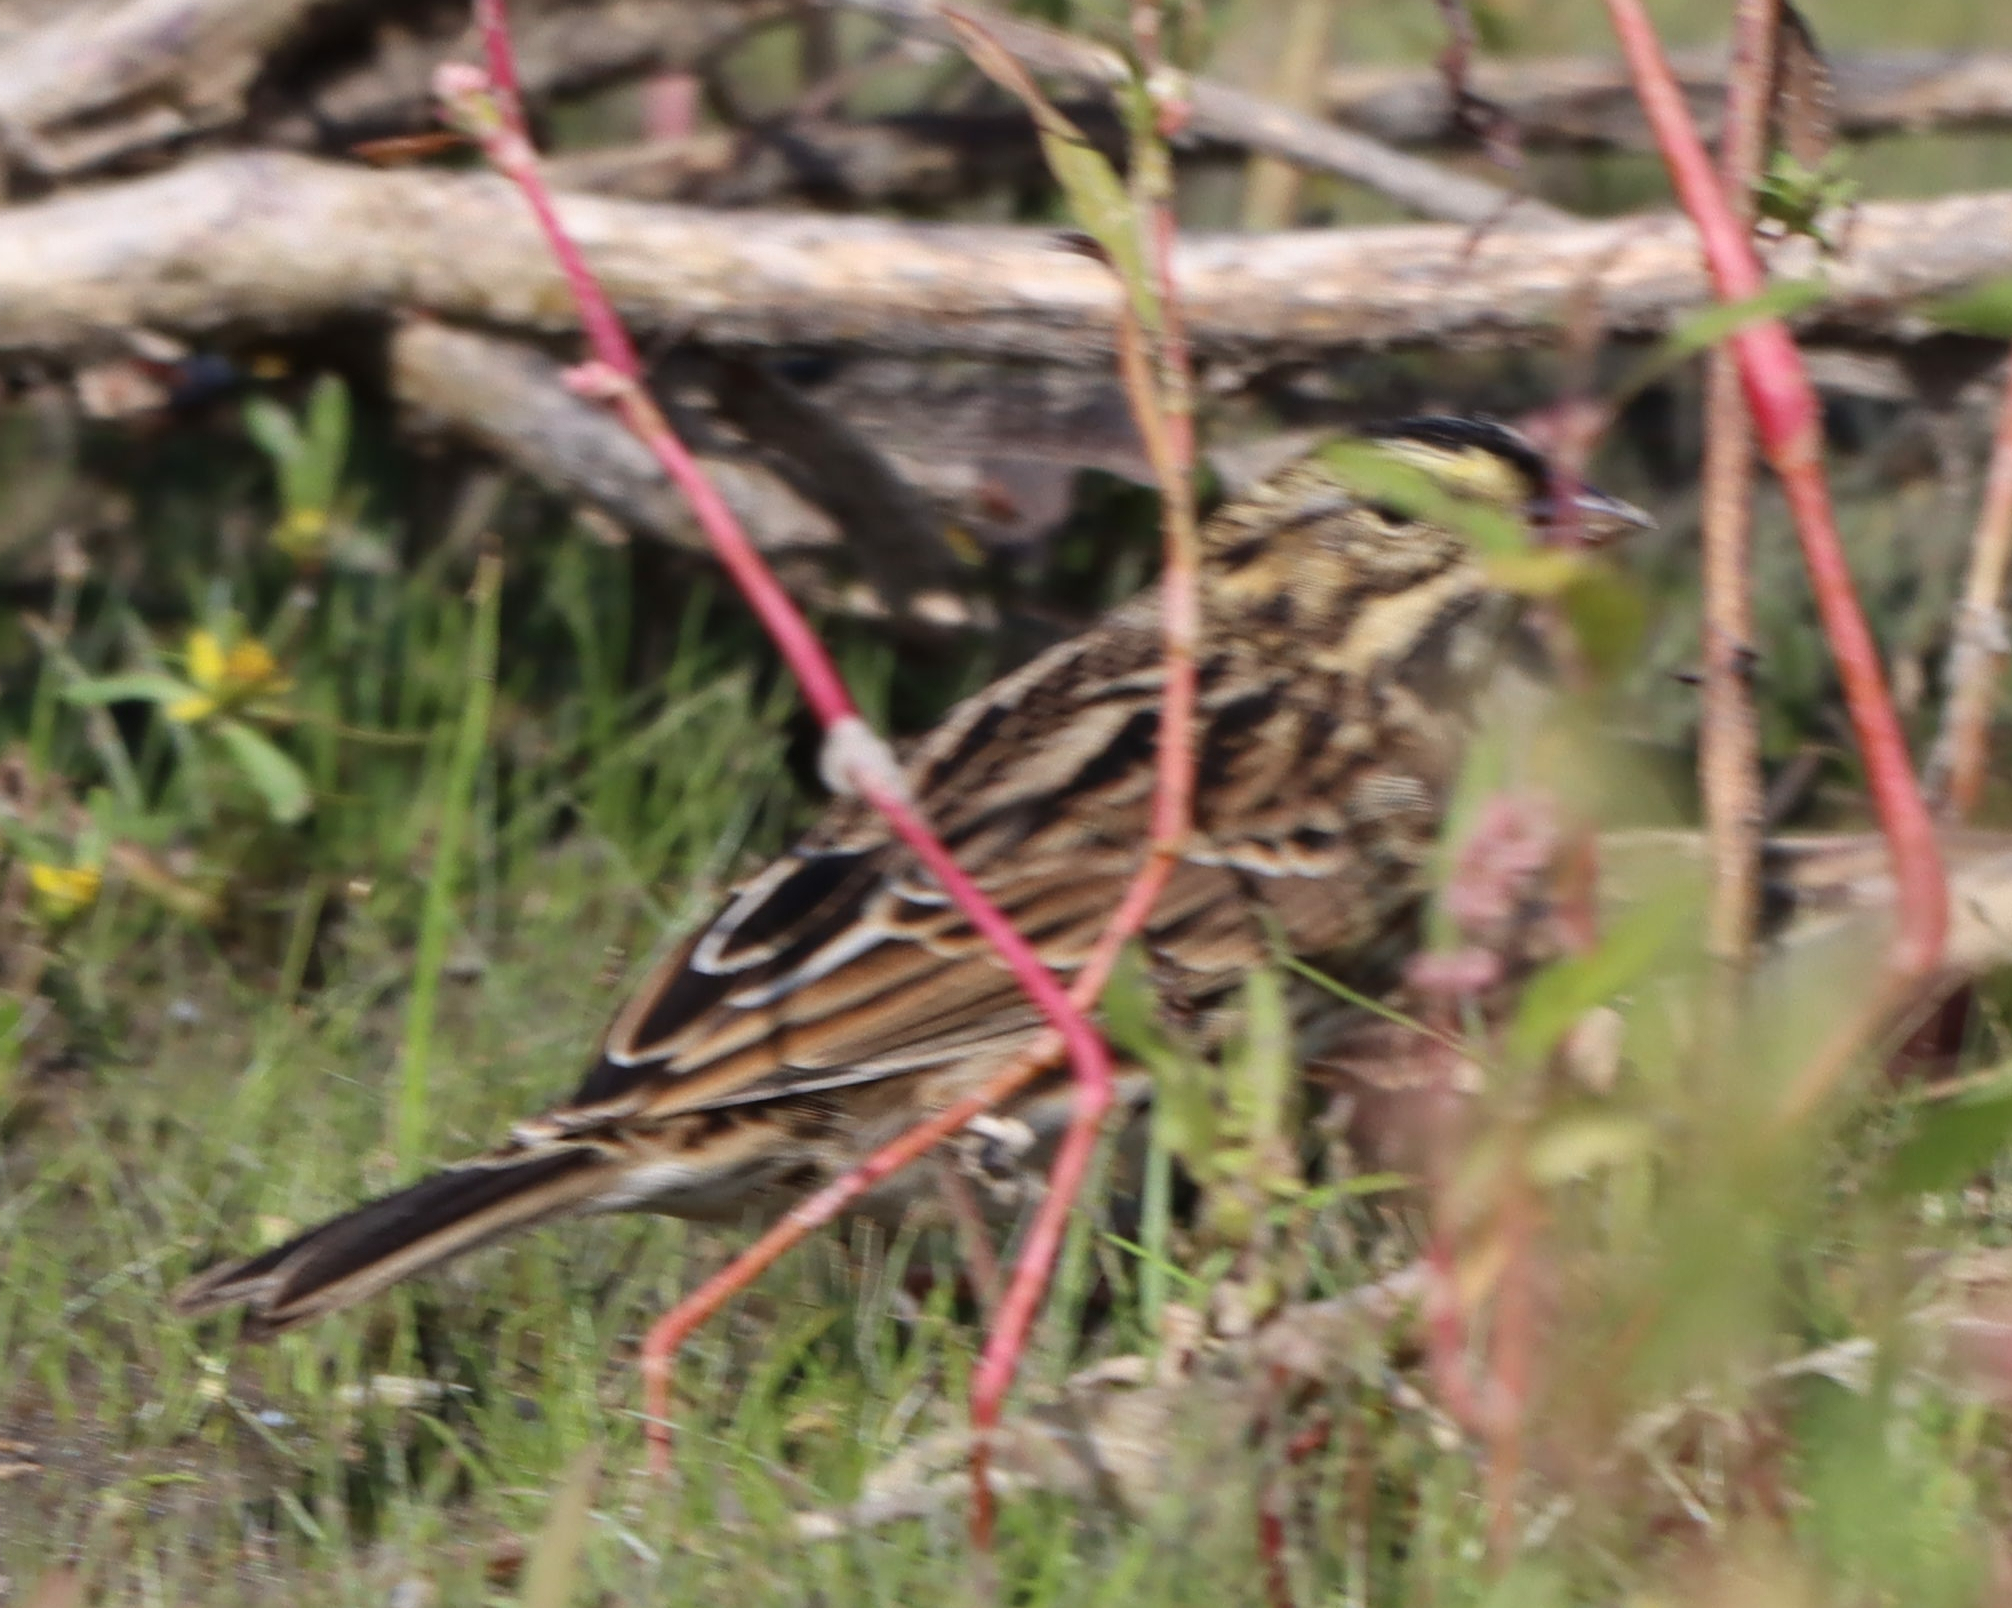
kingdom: Animalia
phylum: Chordata
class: Aves
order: Passeriformes
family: Passerellidae
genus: Passerculus
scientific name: Passerculus sandwichensis
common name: Savannah sparrow
